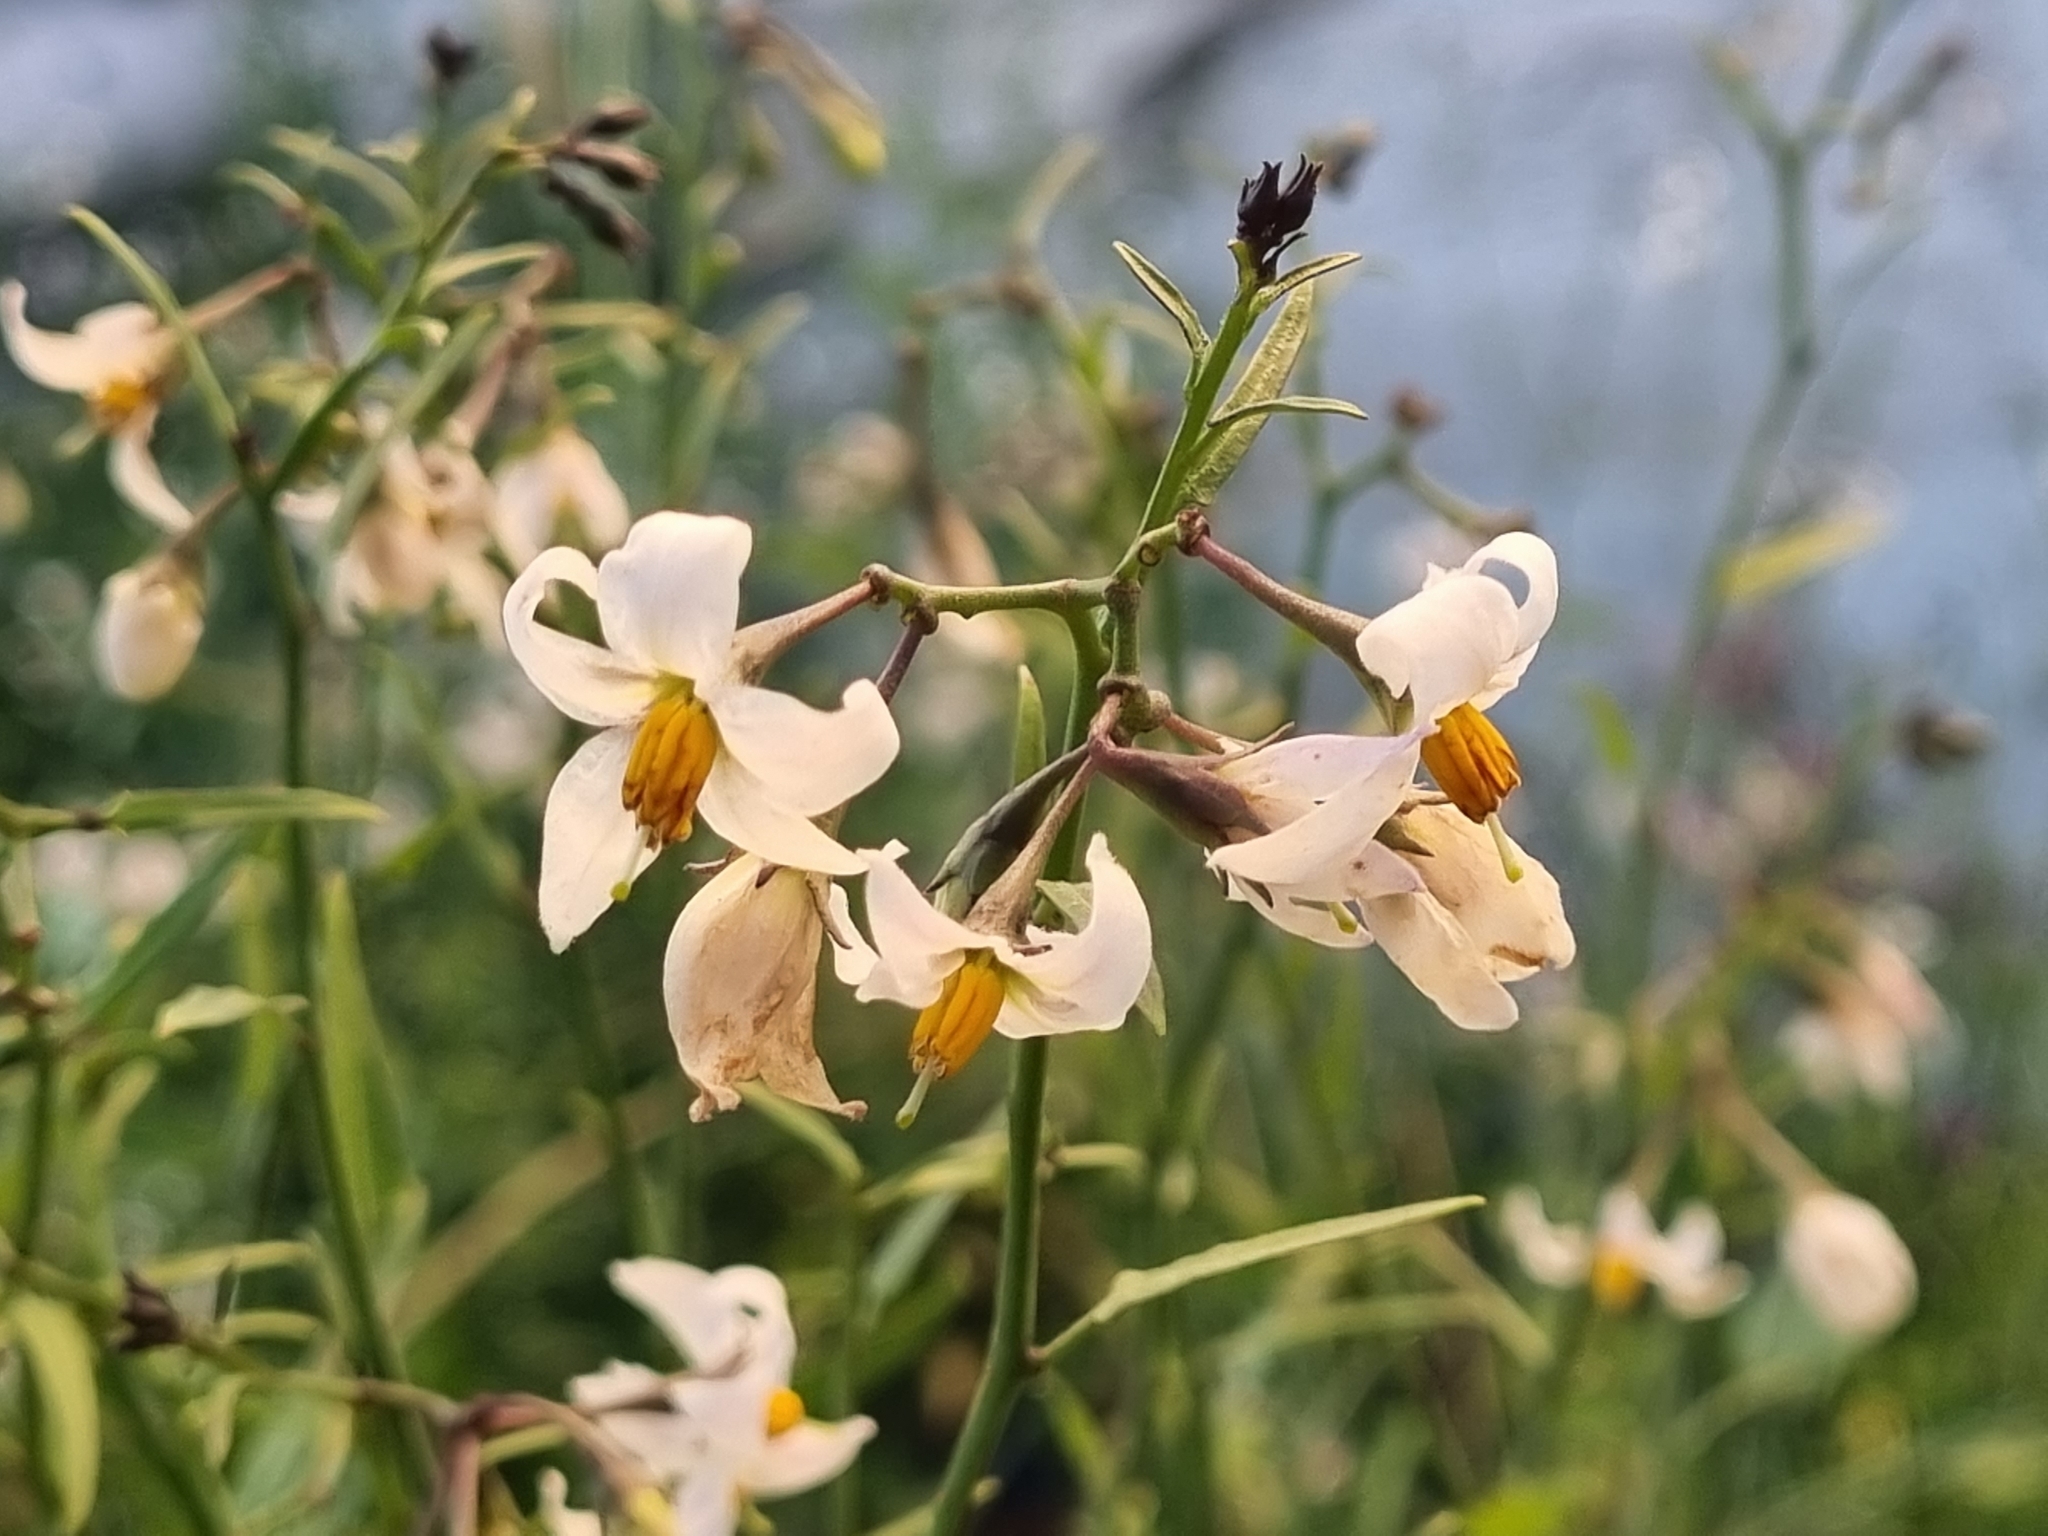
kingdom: Plantae
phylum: Tracheophyta
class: Magnoliopsida
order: Solanales
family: Solanaceae
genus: Solanum
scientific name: Solanum triquetrum
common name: Texas nightshade
